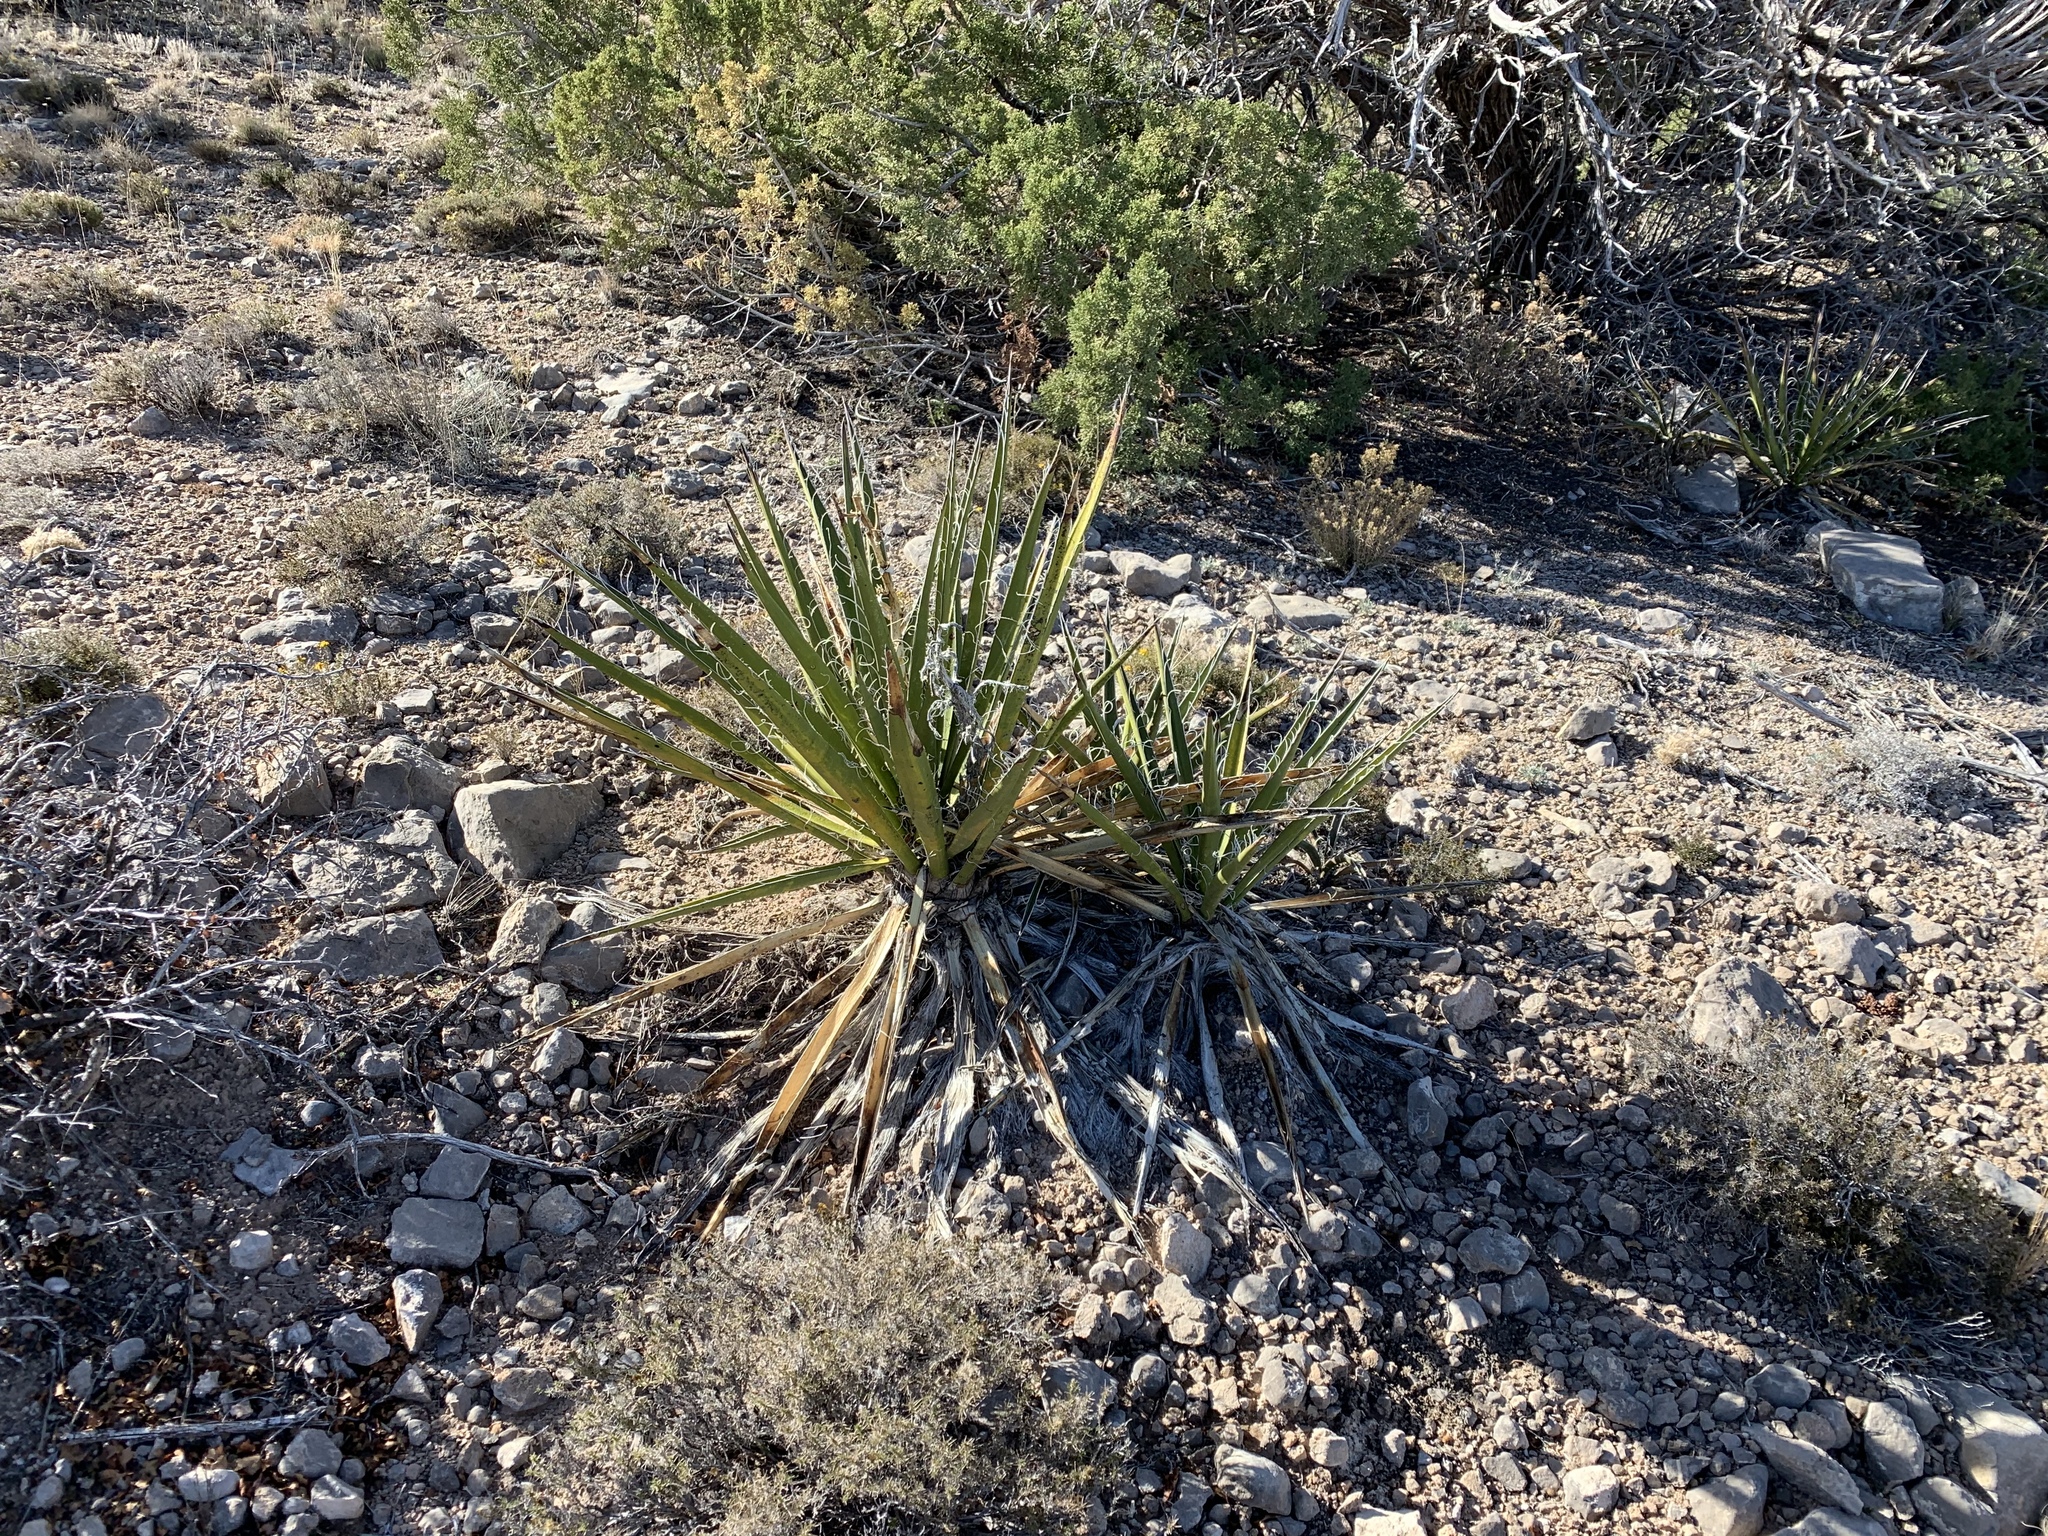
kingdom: Plantae
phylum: Tracheophyta
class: Liliopsida
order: Asparagales
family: Asparagaceae
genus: Yucca
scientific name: Yucca baccata
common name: Banana yucca
